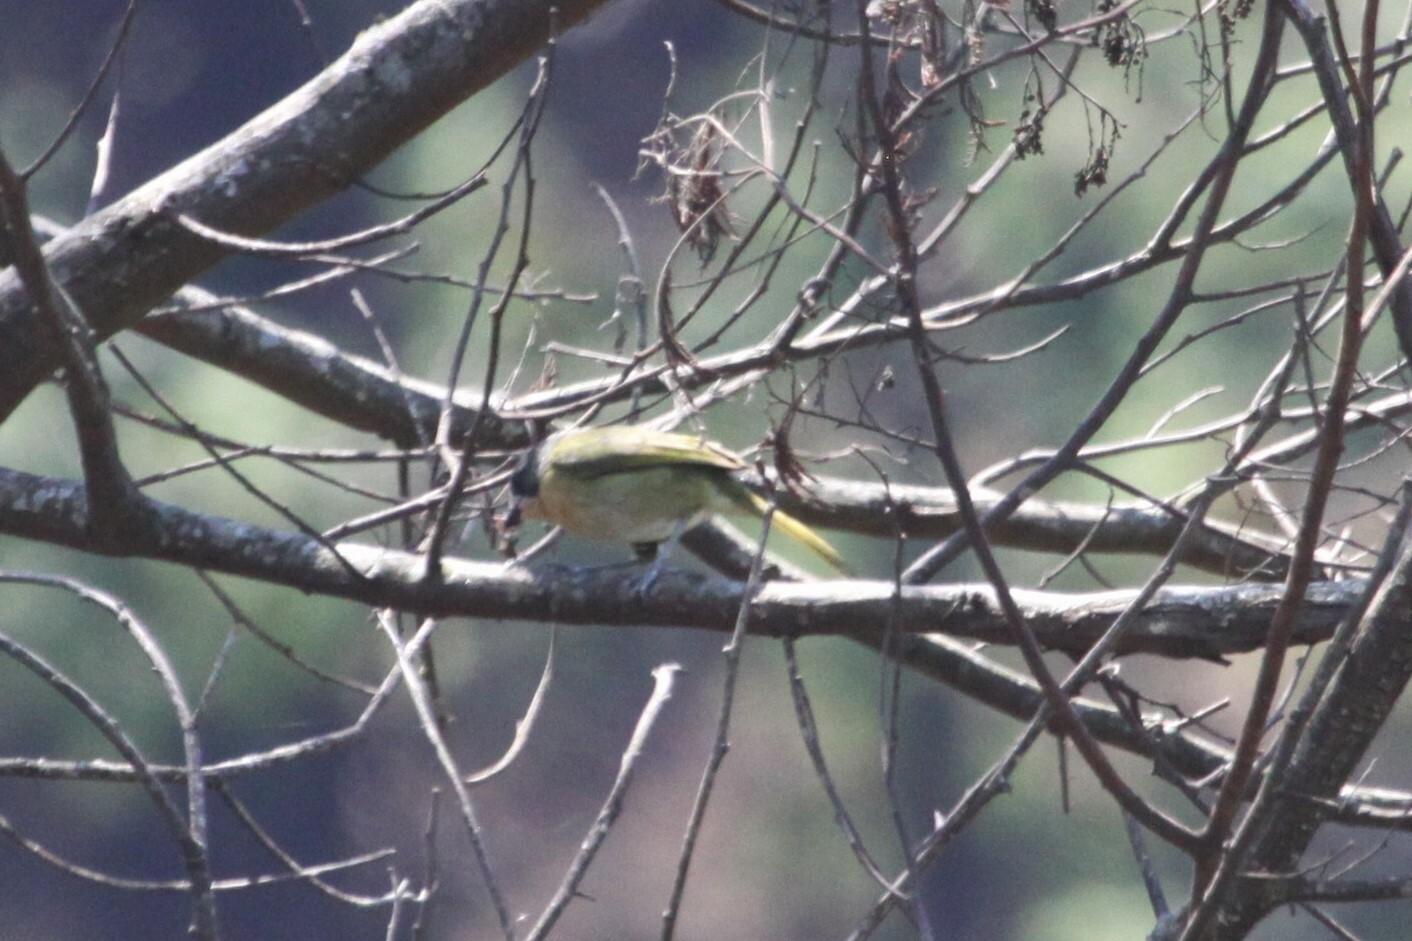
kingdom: Animalia
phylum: Chordata
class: Aves
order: Passeriformes
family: Malaconotidae
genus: Chlorophoneus
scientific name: Chlorophoneus olivaceus
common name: Olive bushshrike
